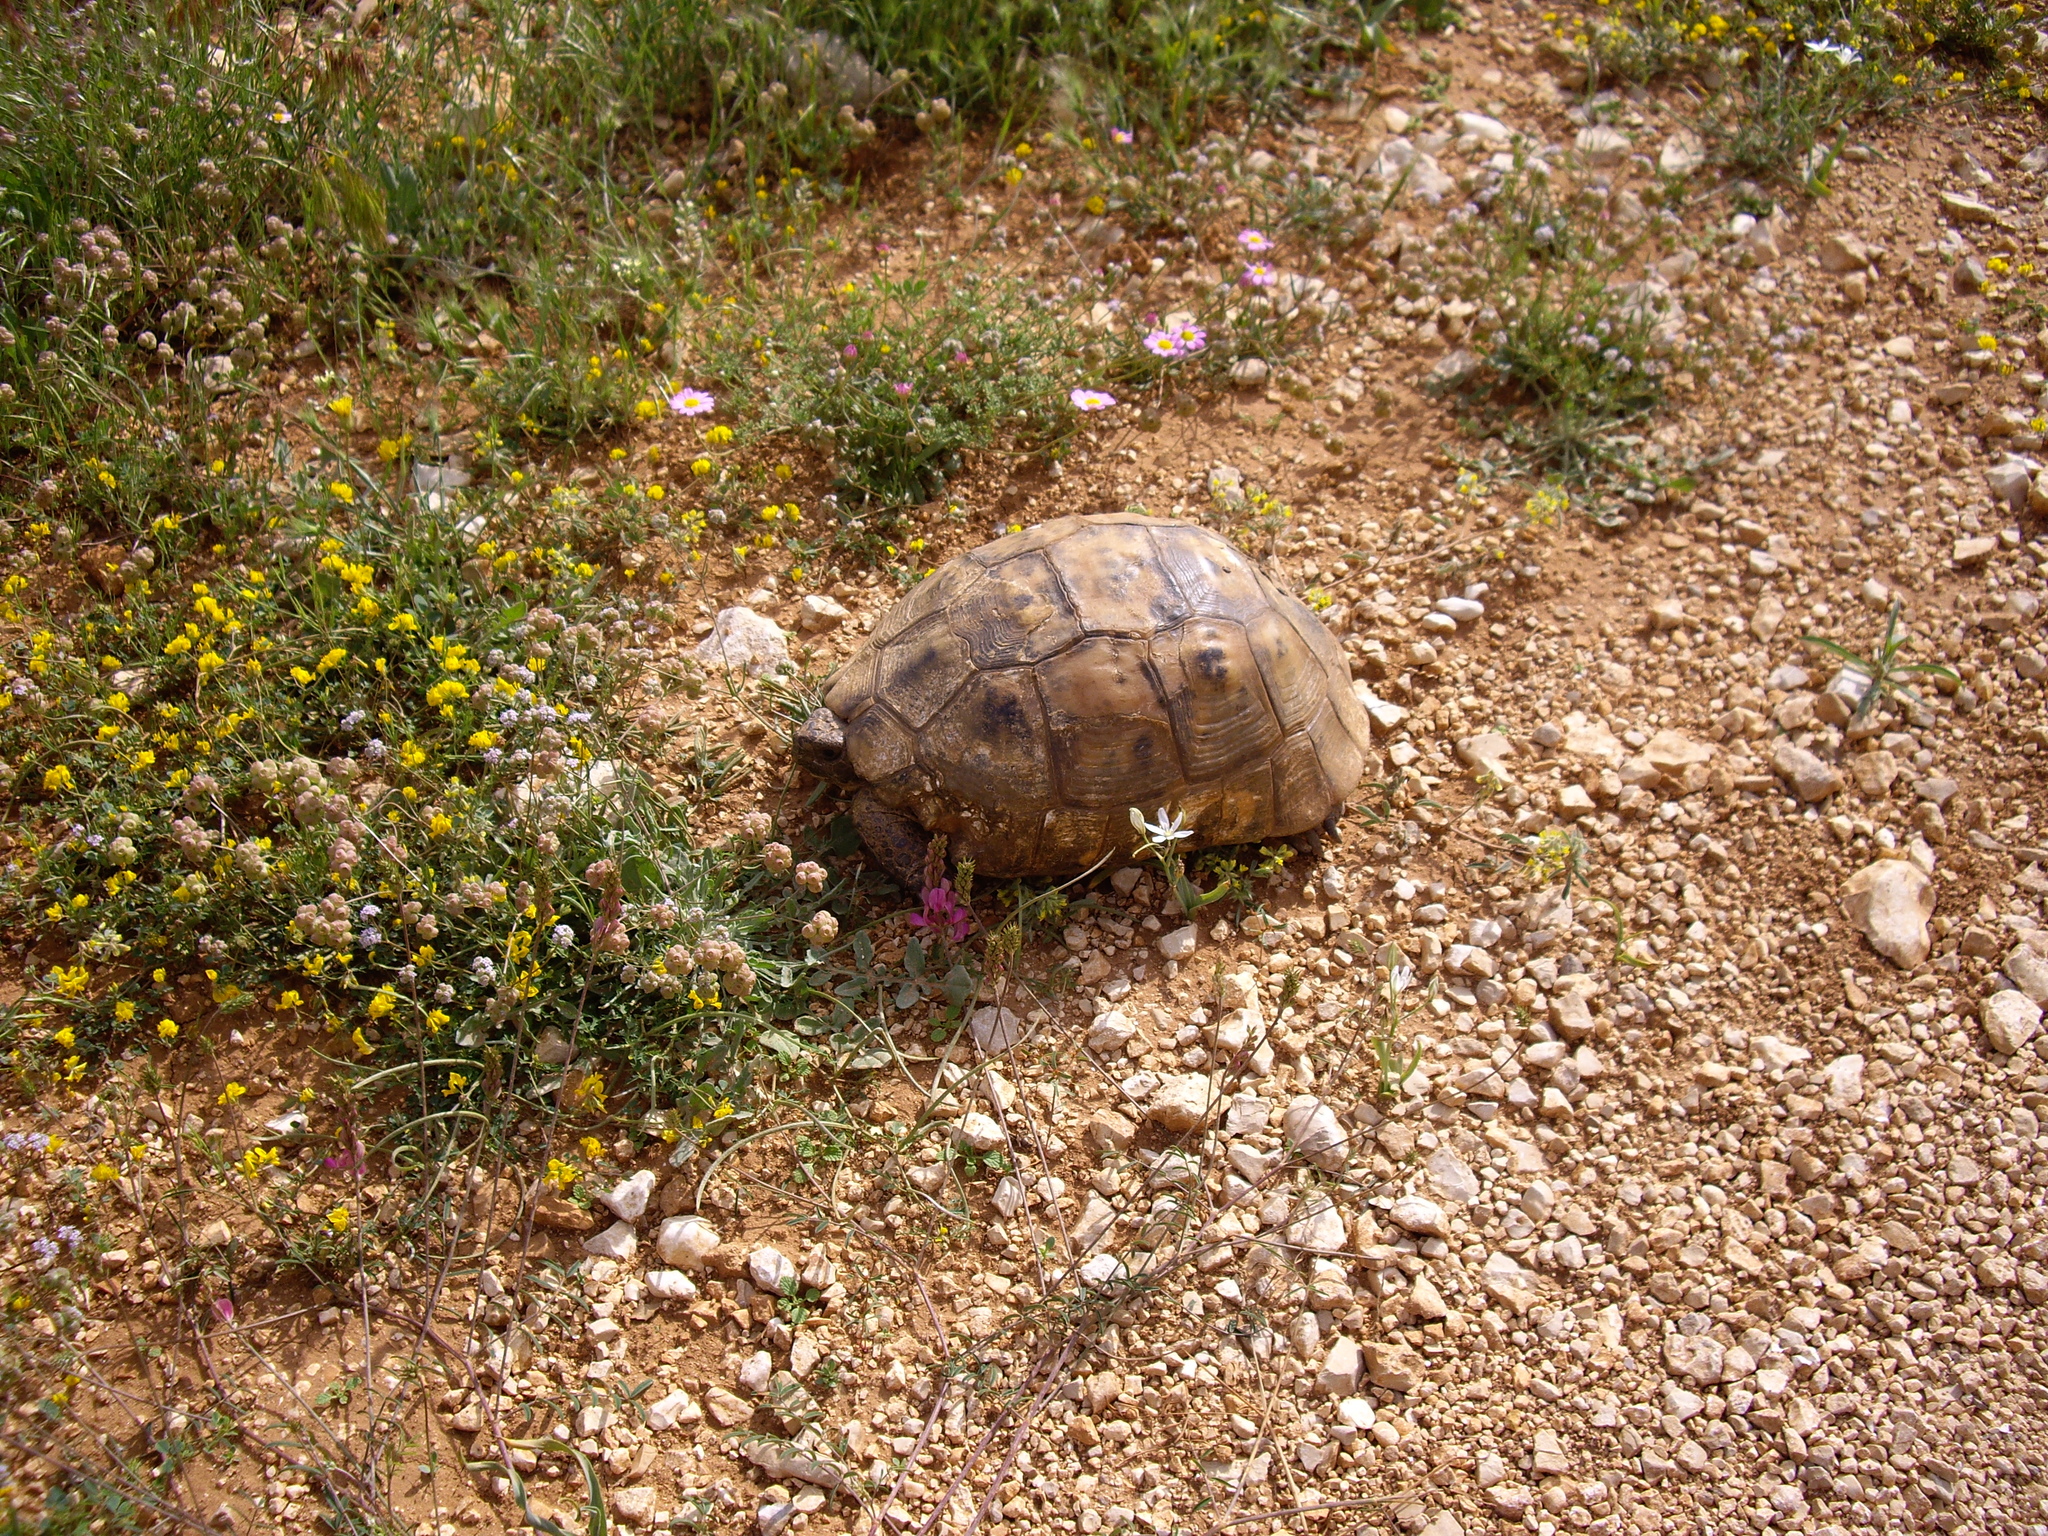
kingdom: Animalia
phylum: Chordata
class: Testudines
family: Testudinidae
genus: Testudo
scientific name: Testudo graeca
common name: Common tortoise
